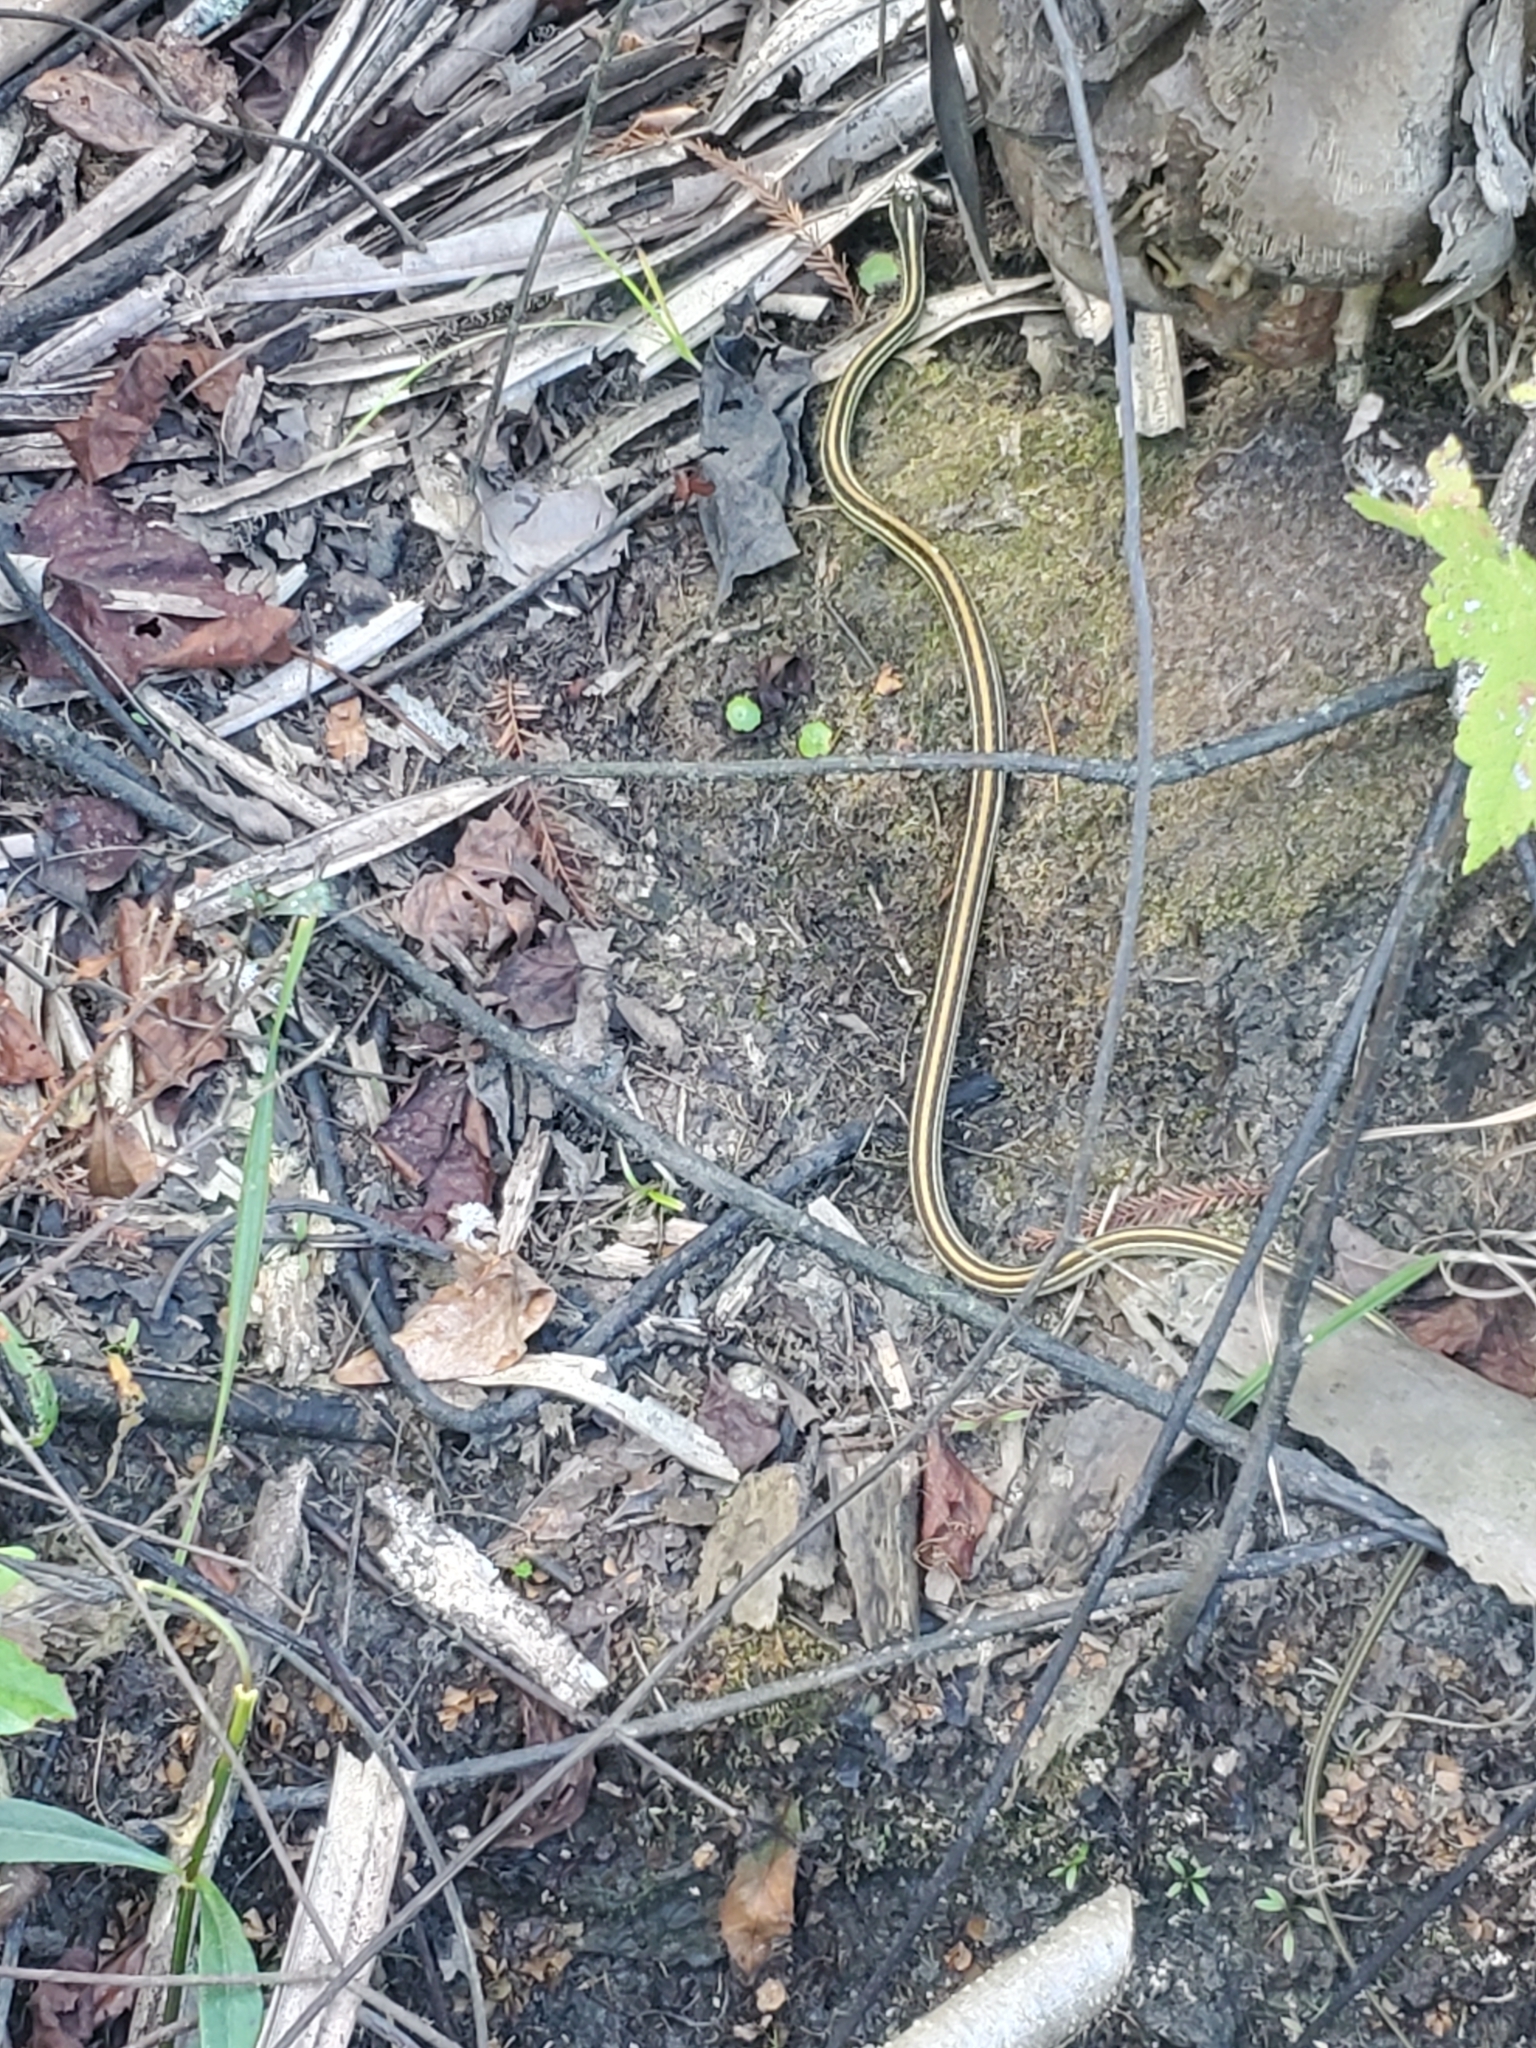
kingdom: Animalia
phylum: Chordata
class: Squamata
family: Colubridae
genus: Thamnophis
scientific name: Thamnophis proximus
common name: Western ribbon snake
